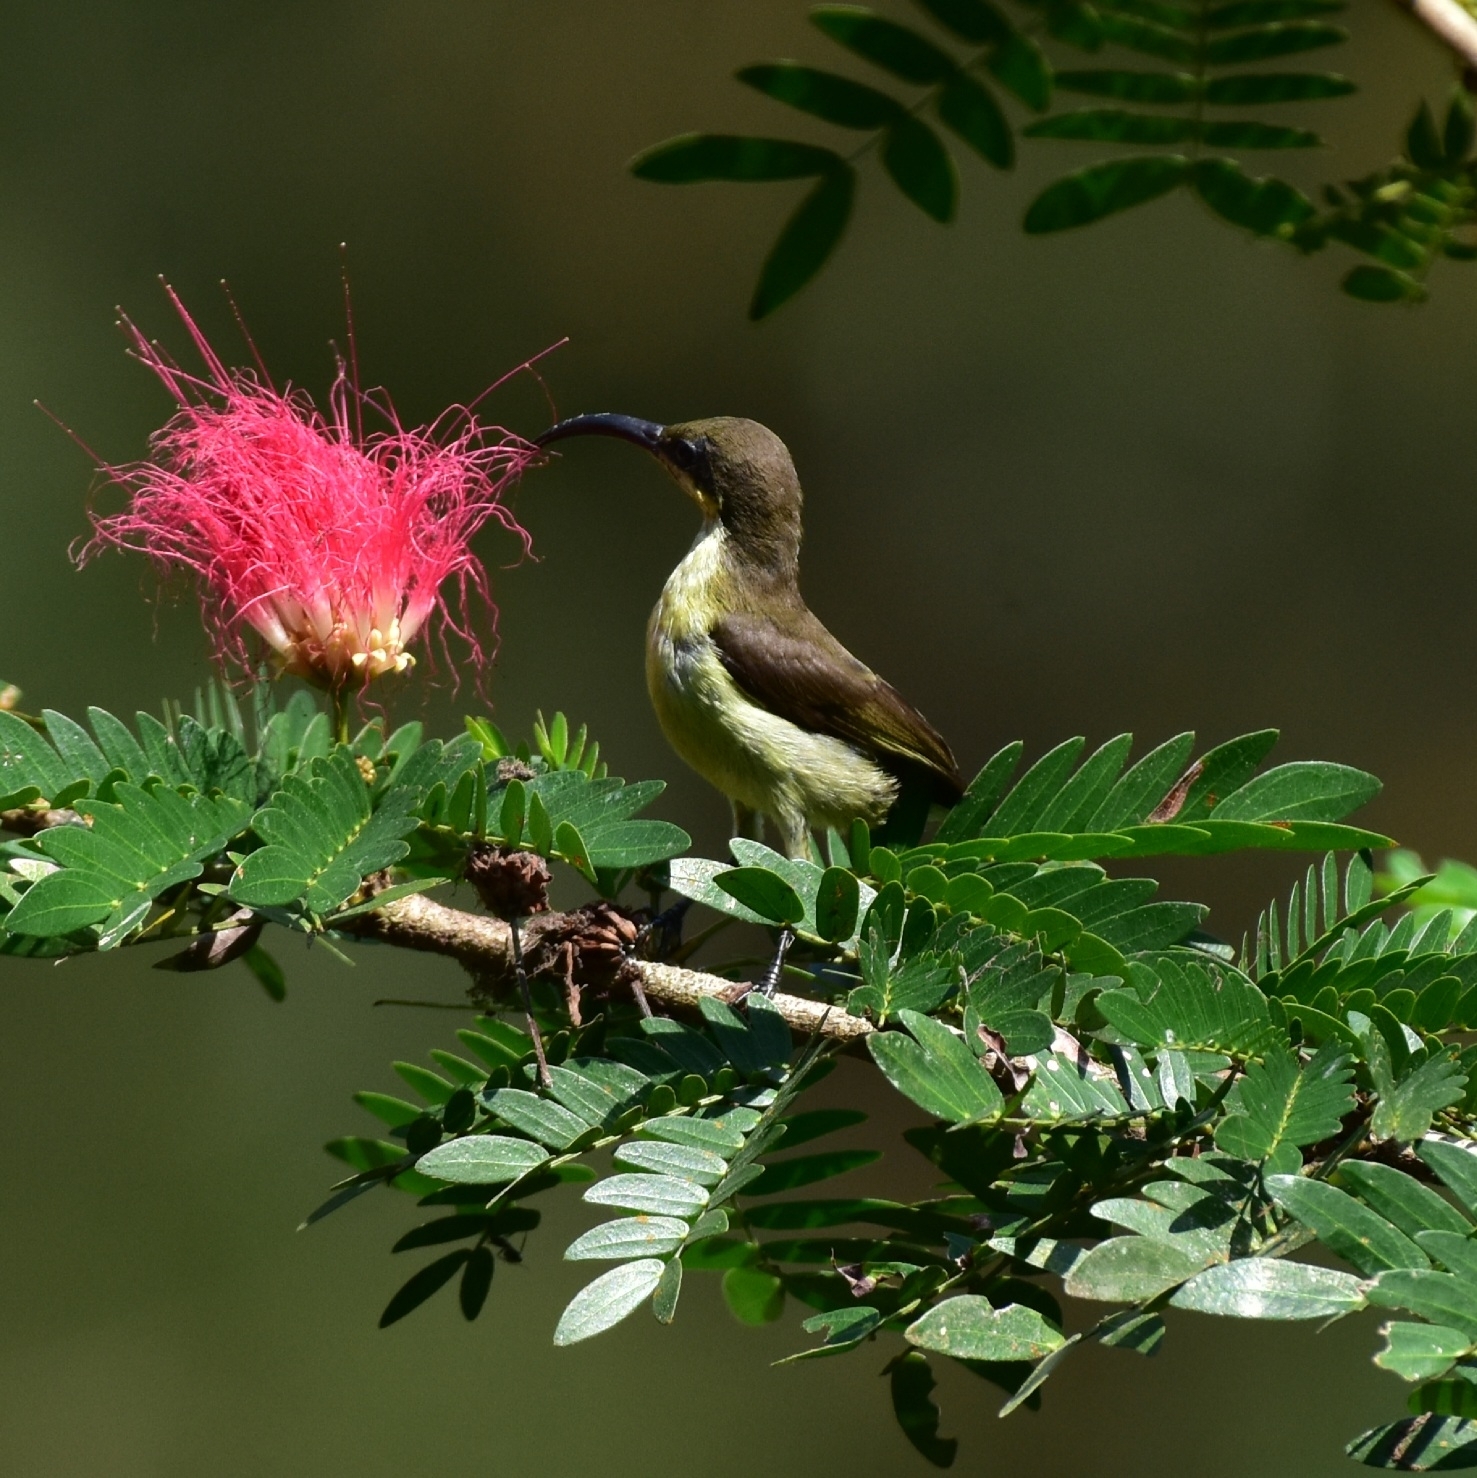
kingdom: Animalia
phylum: Chordata
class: Aves
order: Passeriformes
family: Nectariniidae
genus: Cinnyris
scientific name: Cinnyris lotenius
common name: Loten's sunbird
